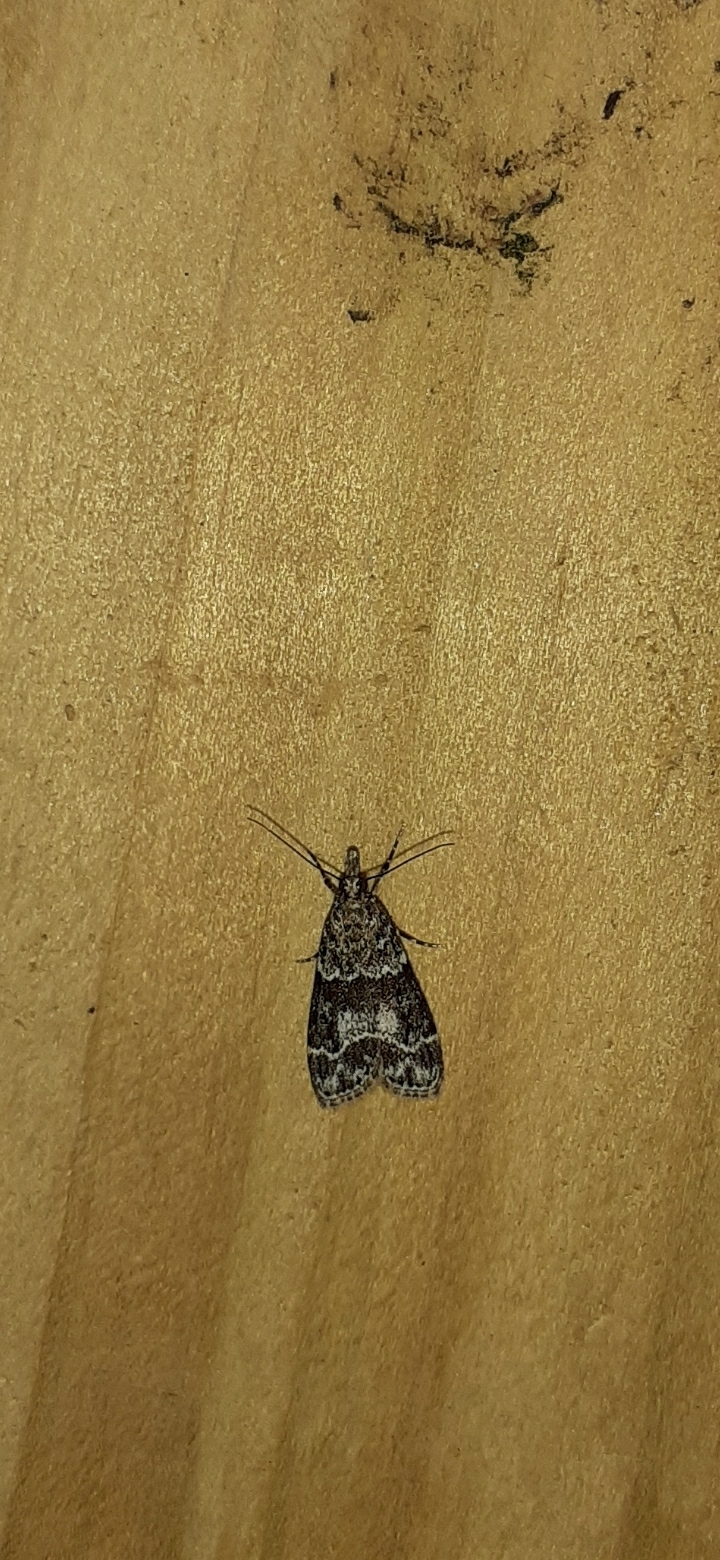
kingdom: Animalia
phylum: Arthropoda
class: Insecta
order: Lepidoptera
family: Crambidae
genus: Eudonia
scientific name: Eudonia mercurella
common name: Small grey
